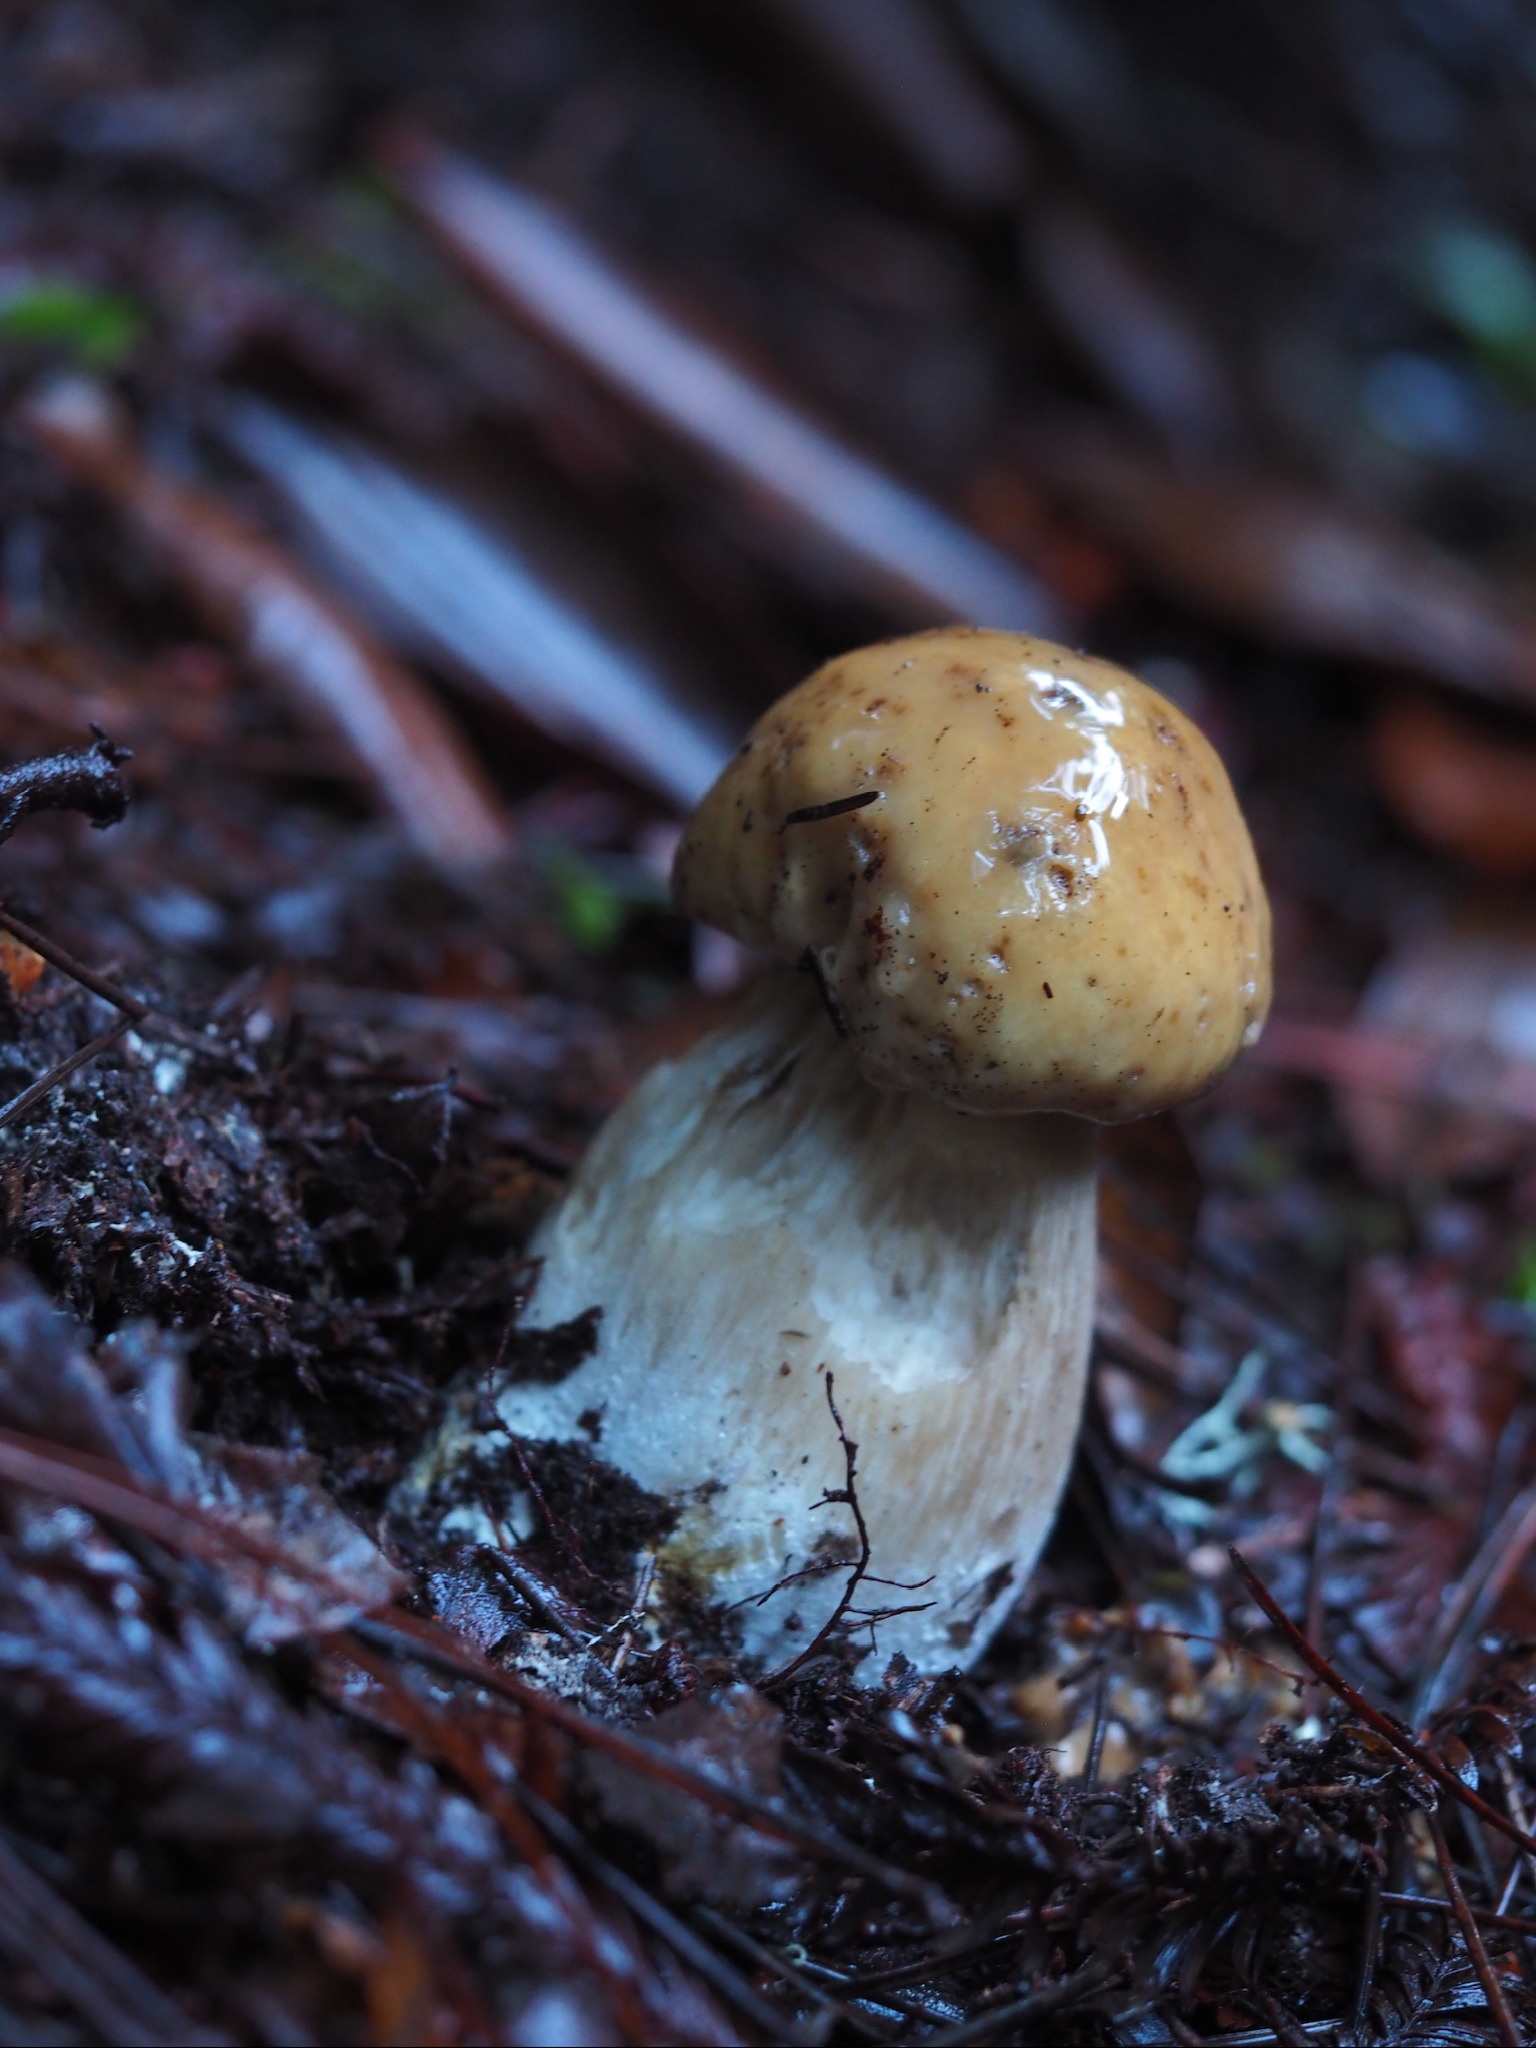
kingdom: Fungi
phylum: Basidiomycota
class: Agaricomycetes
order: Boletales
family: Boletaceae
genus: Boletus
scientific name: Boletus edulis
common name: Cep
